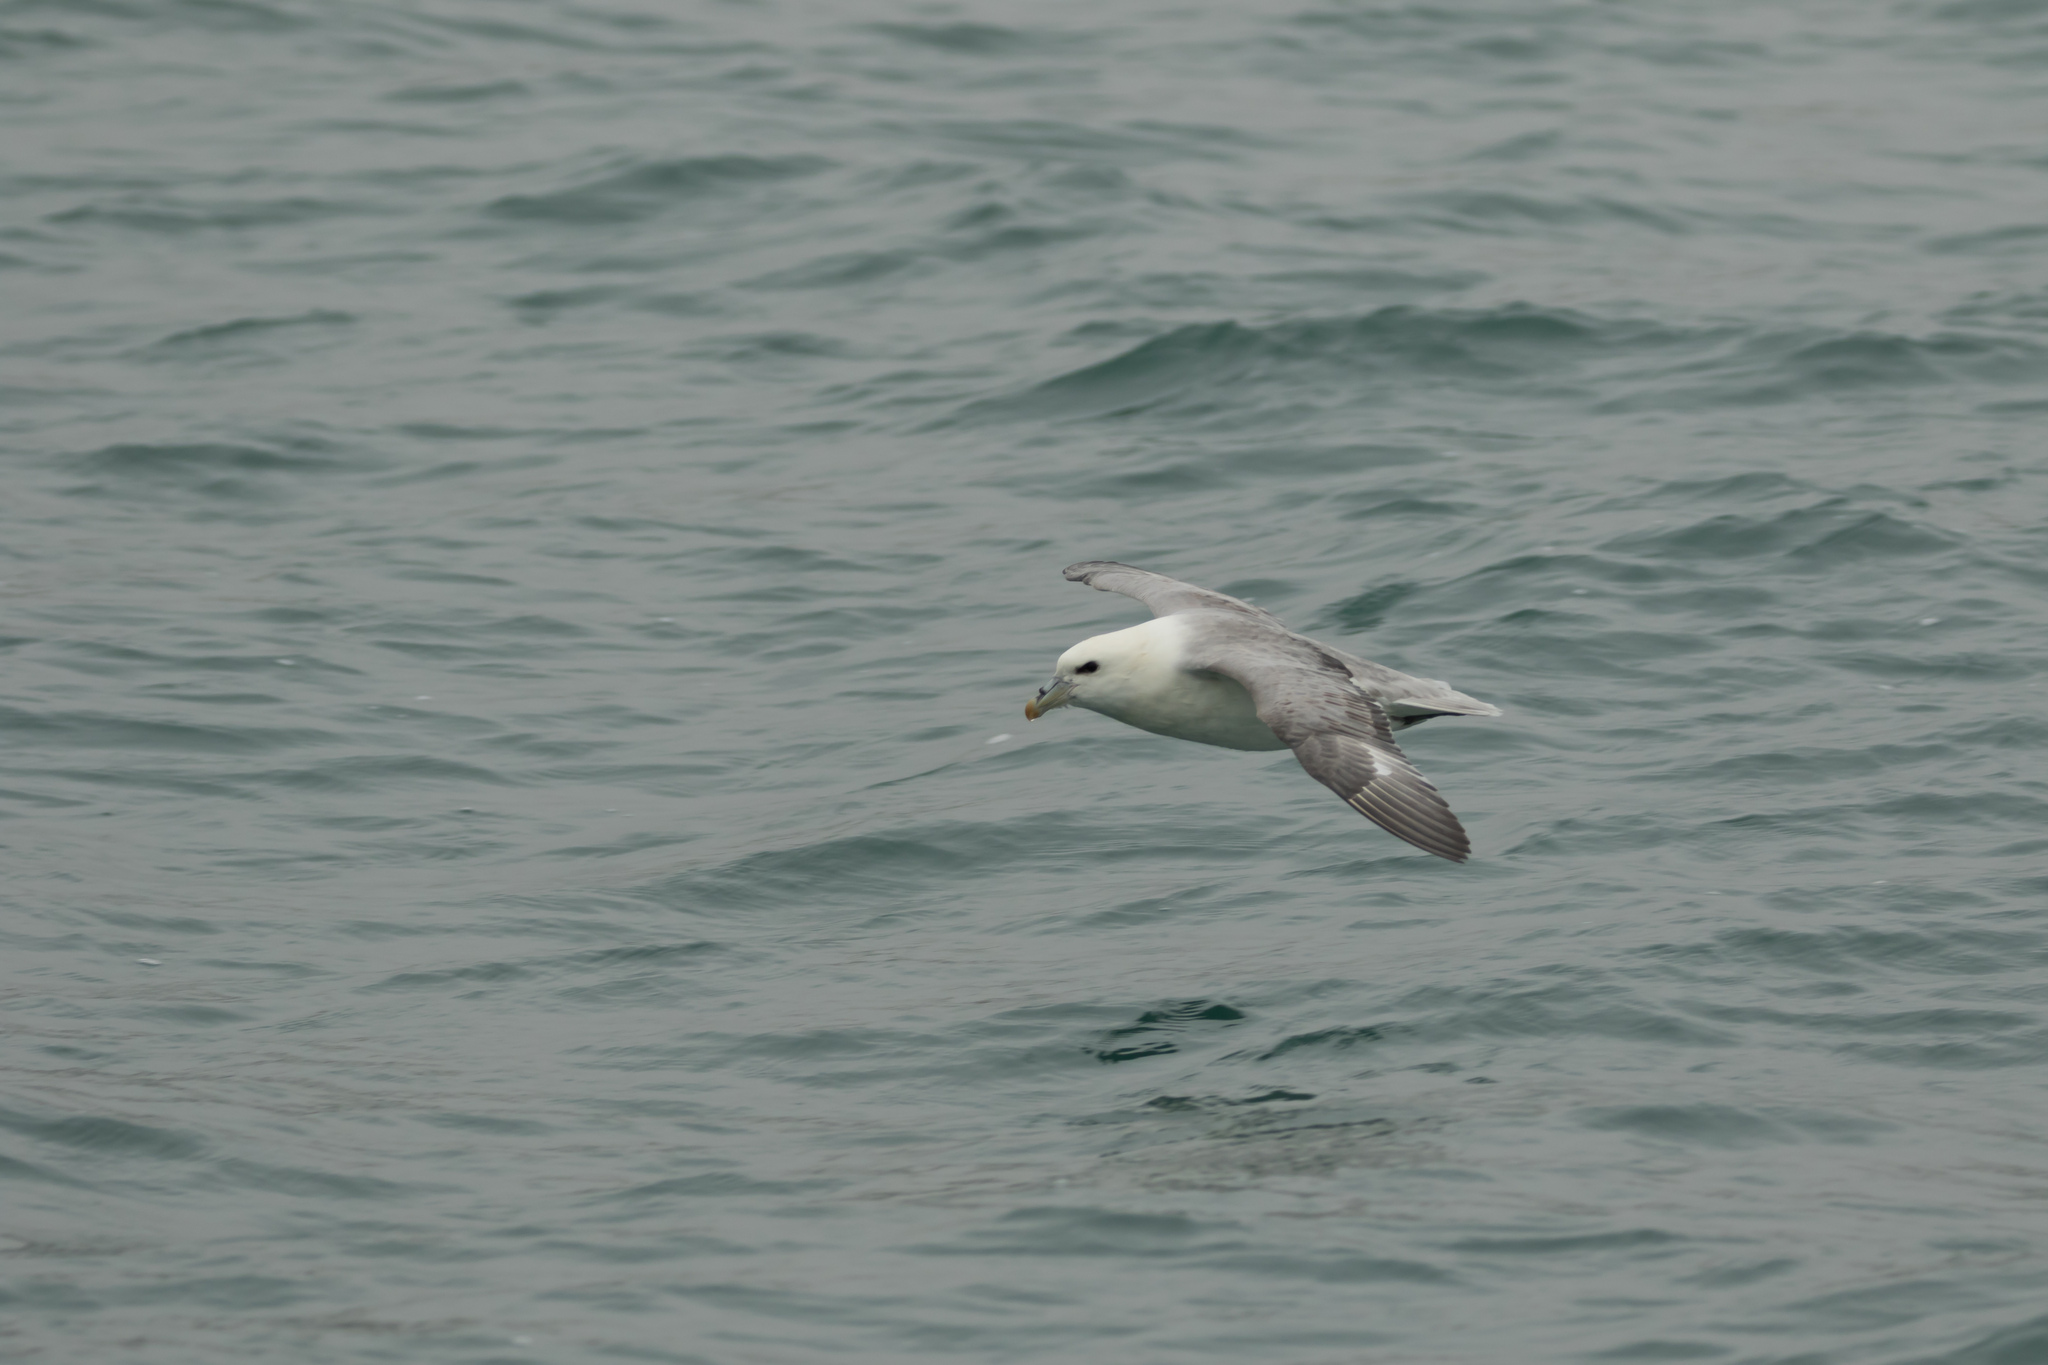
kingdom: Animalia
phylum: Chordata
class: Aves
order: Procellariiformes
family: Procellariidae
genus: Fulmarus
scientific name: Fulmarus glacialis
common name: Northern fulmar
